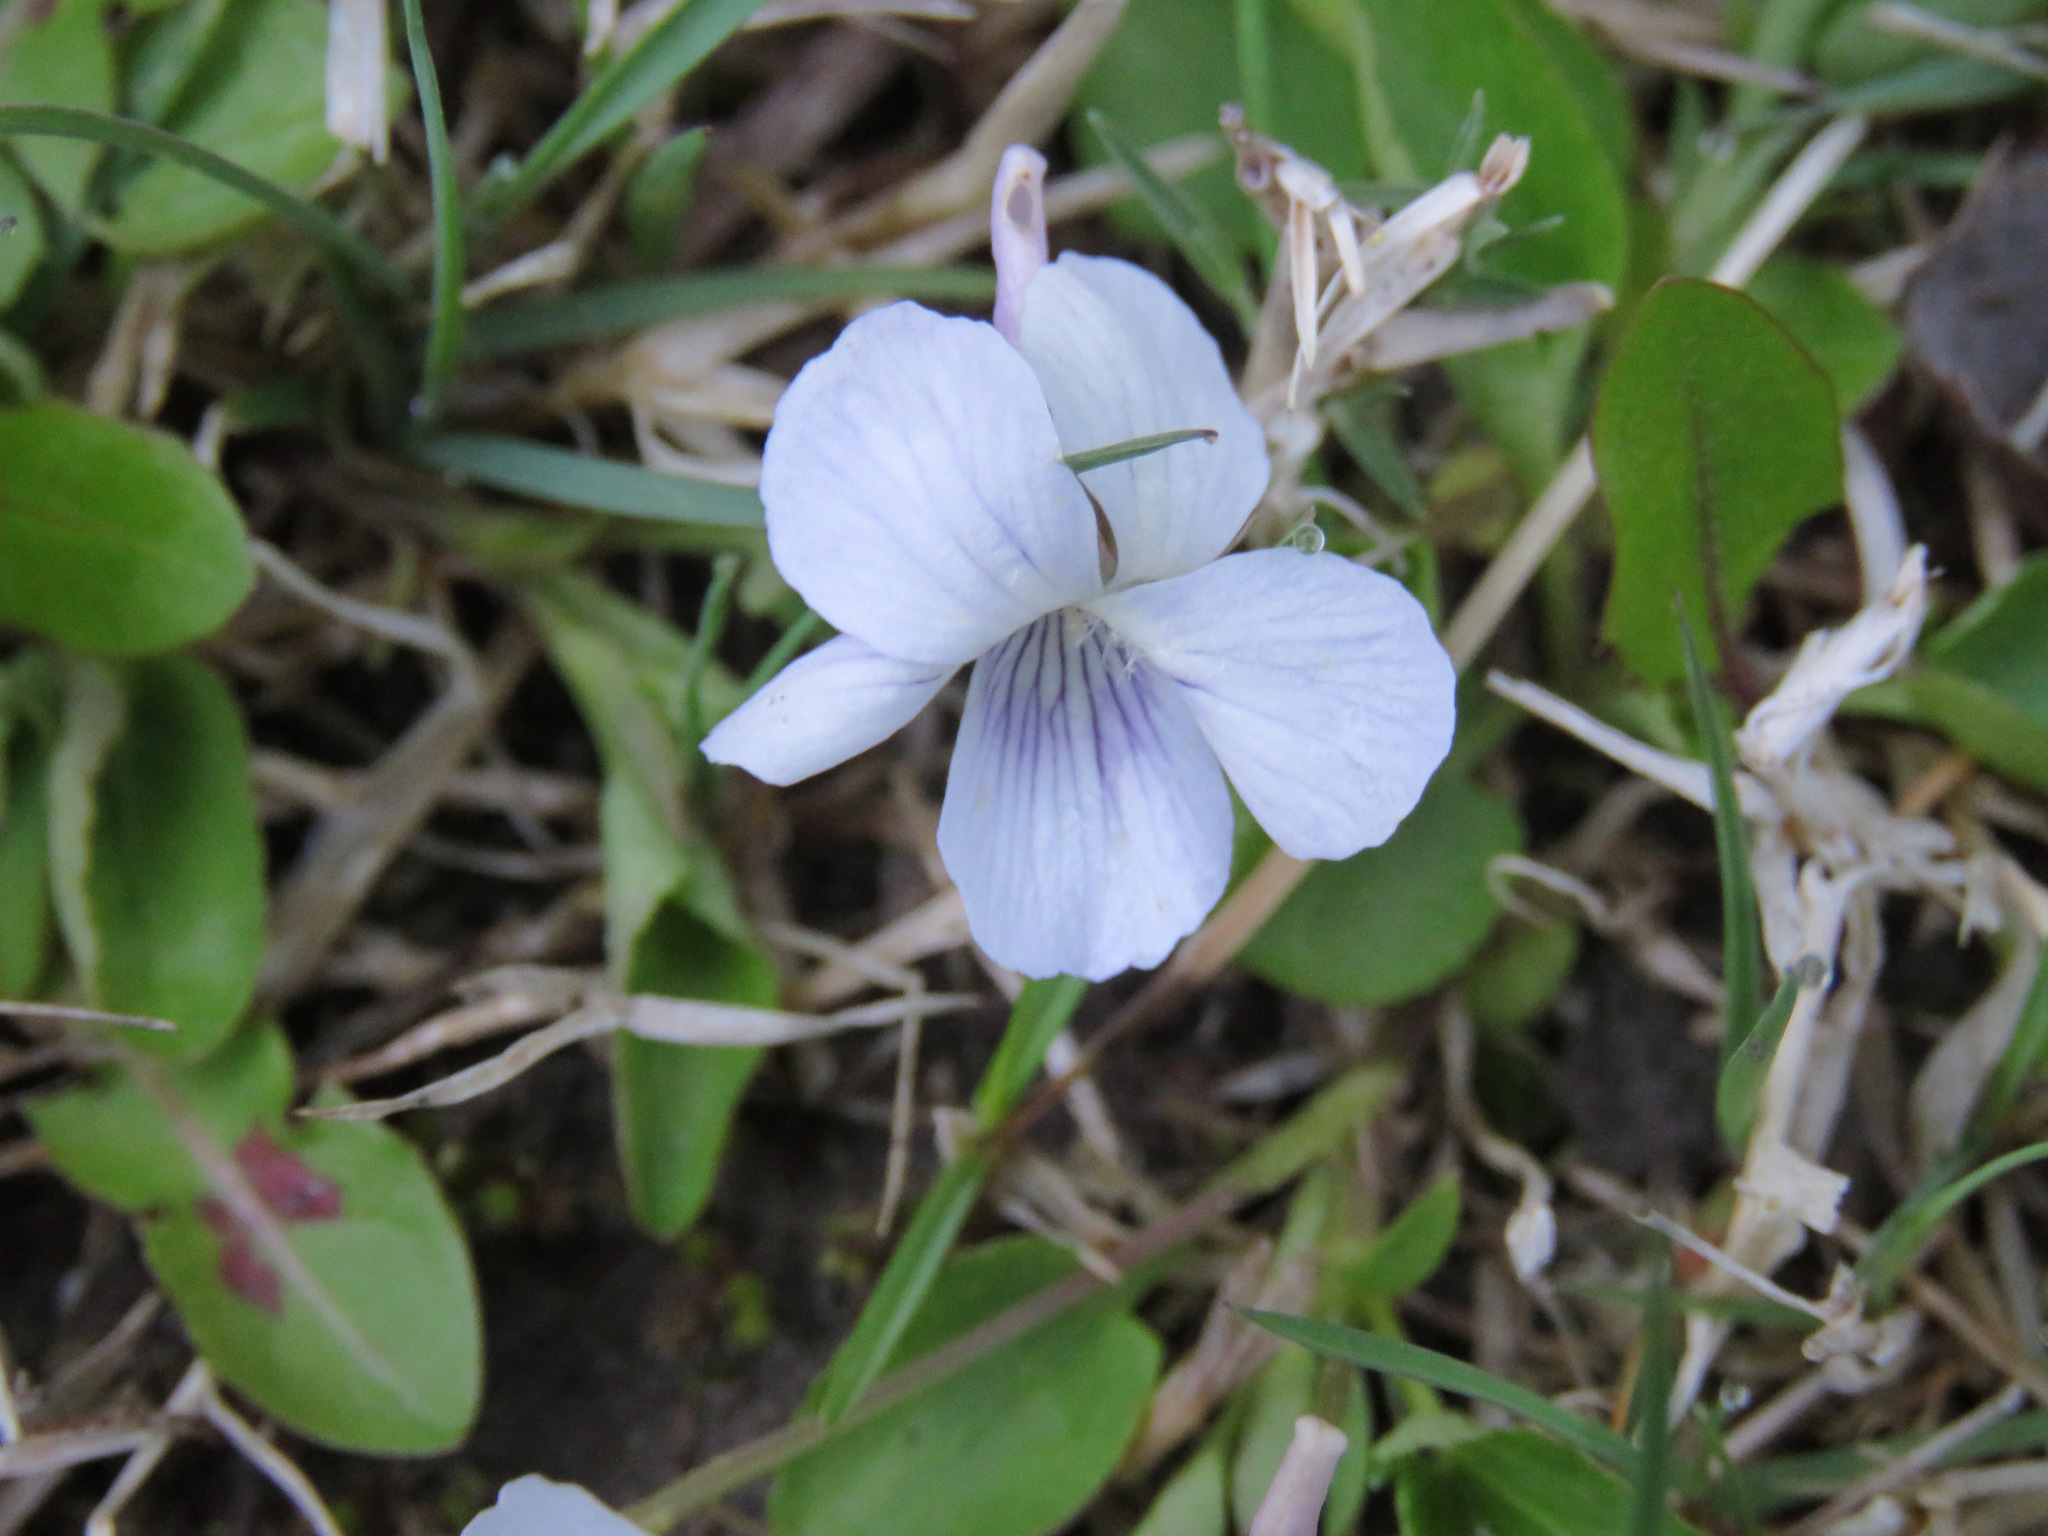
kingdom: Plantae
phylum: Tracheophyta
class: Magnoliopsida
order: Malpighiales
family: Violaceae
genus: Viola
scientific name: Viola adunca
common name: Sand violet
